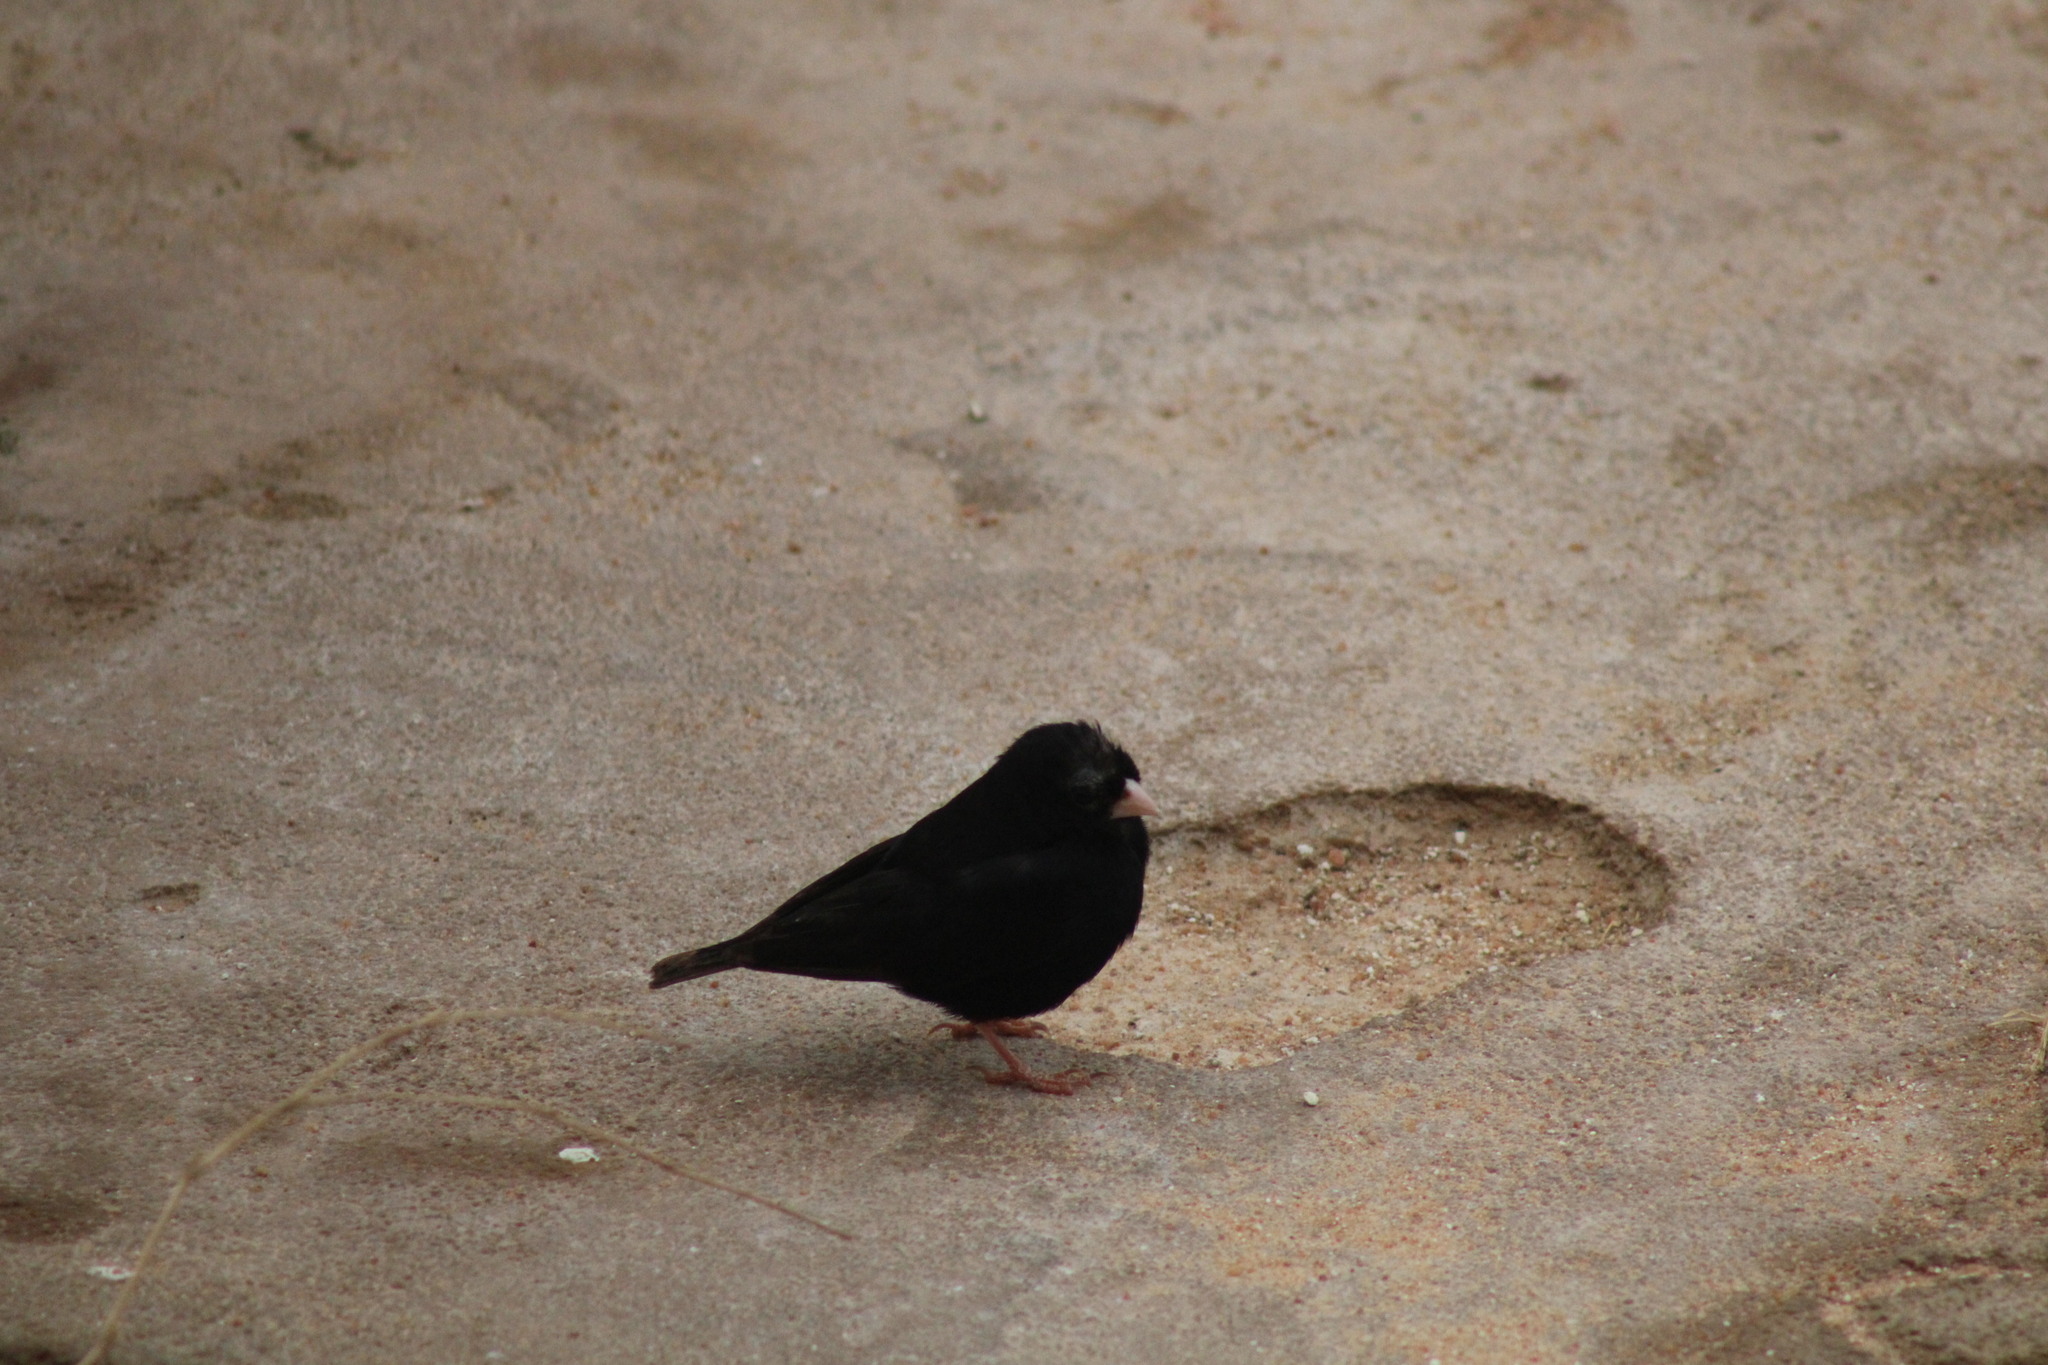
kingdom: Animalia
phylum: Chordata
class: Aves
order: Passeriformes
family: Viduidae
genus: Vidua
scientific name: Vidua chalybeata
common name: Village indigobird
